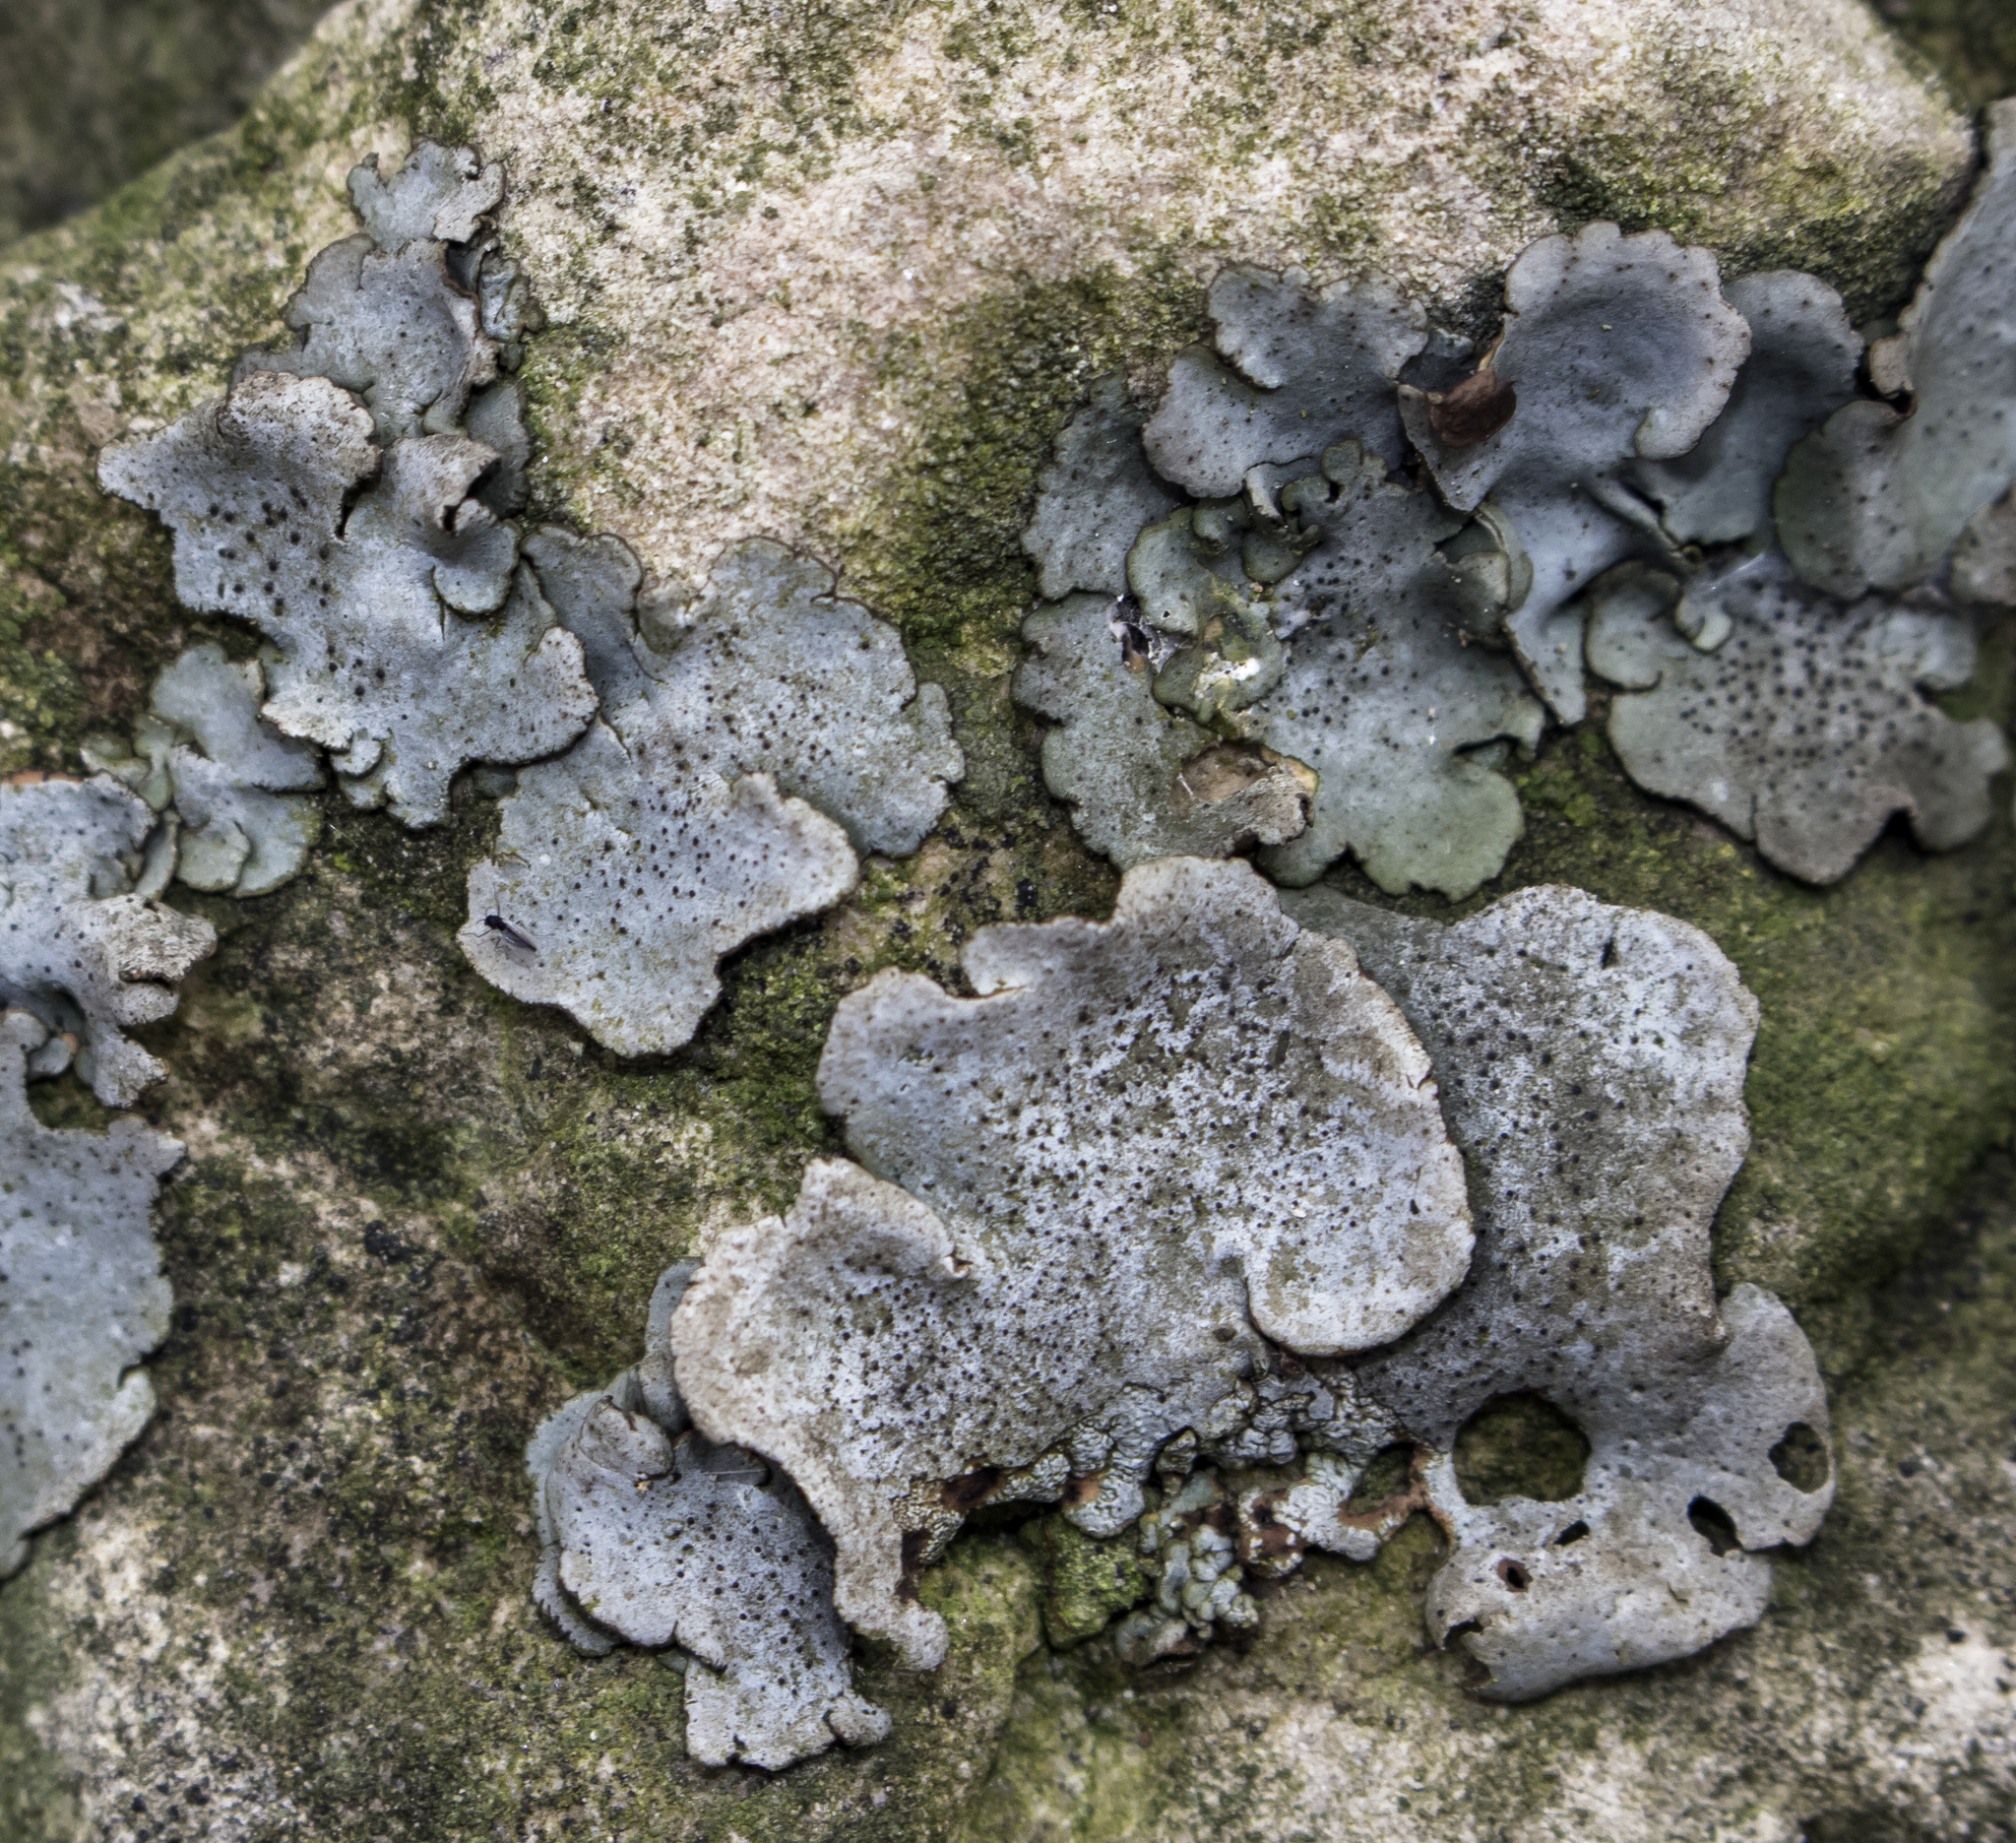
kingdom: Fungi
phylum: Ascomycota
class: Eurotiomycetes
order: Verrucariales
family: Verrucariaceae
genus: Dermatocarpon
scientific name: Dermatocarpon muhlenbergii
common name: Muhlenberg's stippleback lichen
